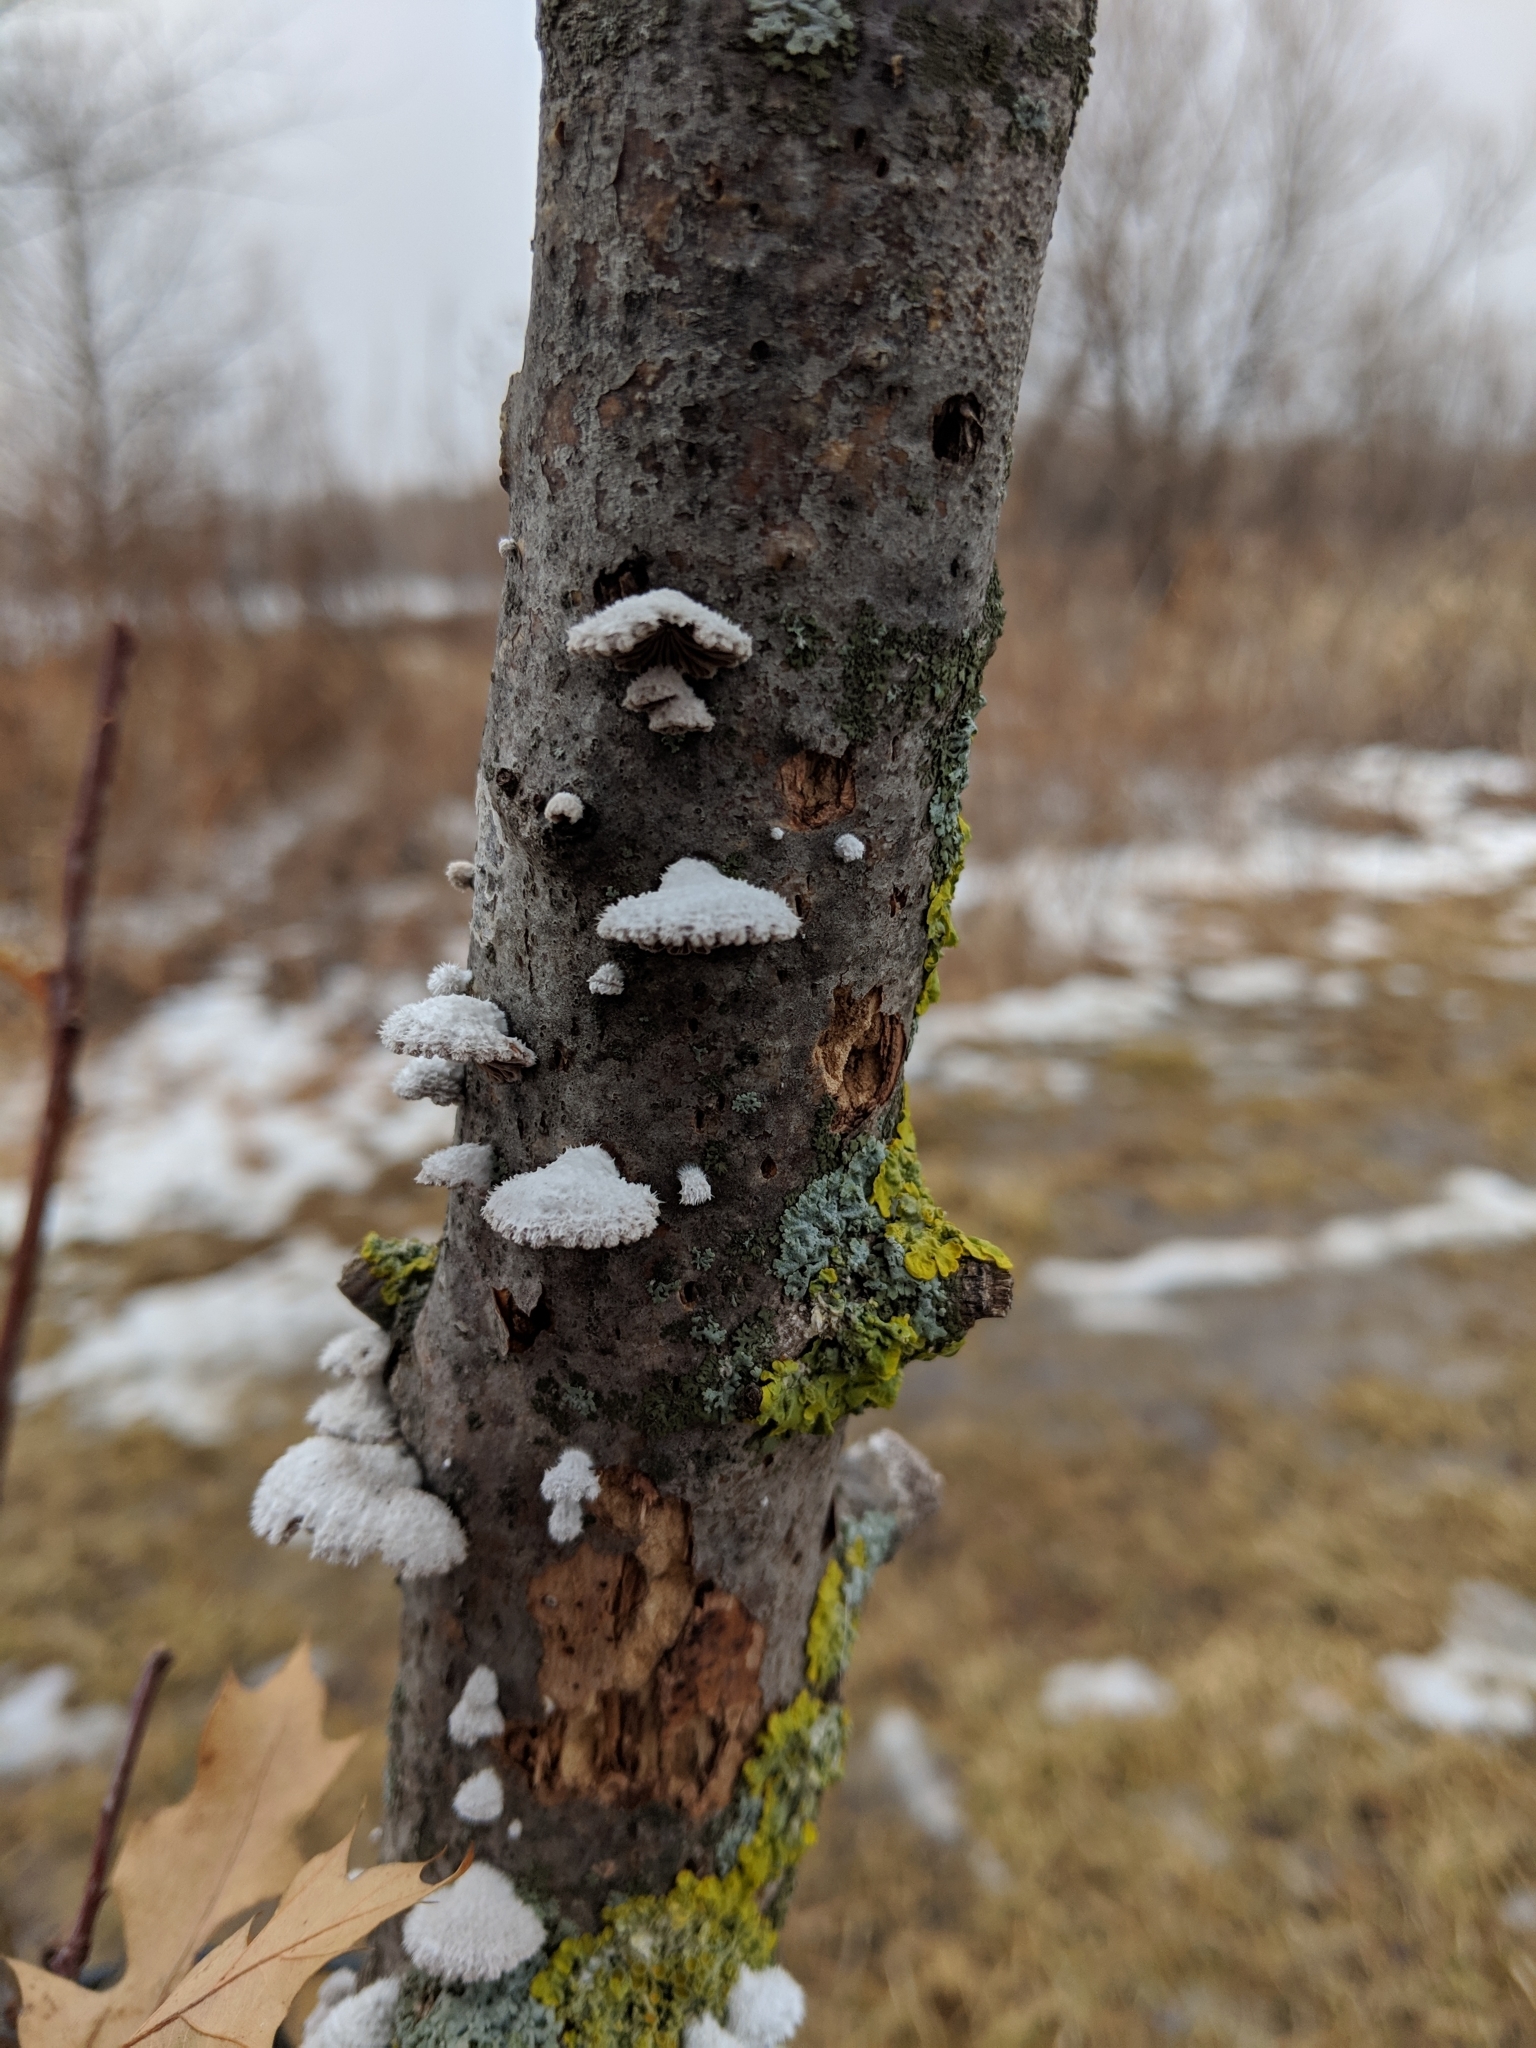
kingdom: Fungi
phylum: Basidiomycota
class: Agaricomycetes
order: Agaricales
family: Schizophyllaceae
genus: Schizophyllum
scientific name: Schizophyllum commune
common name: Common porecrust
